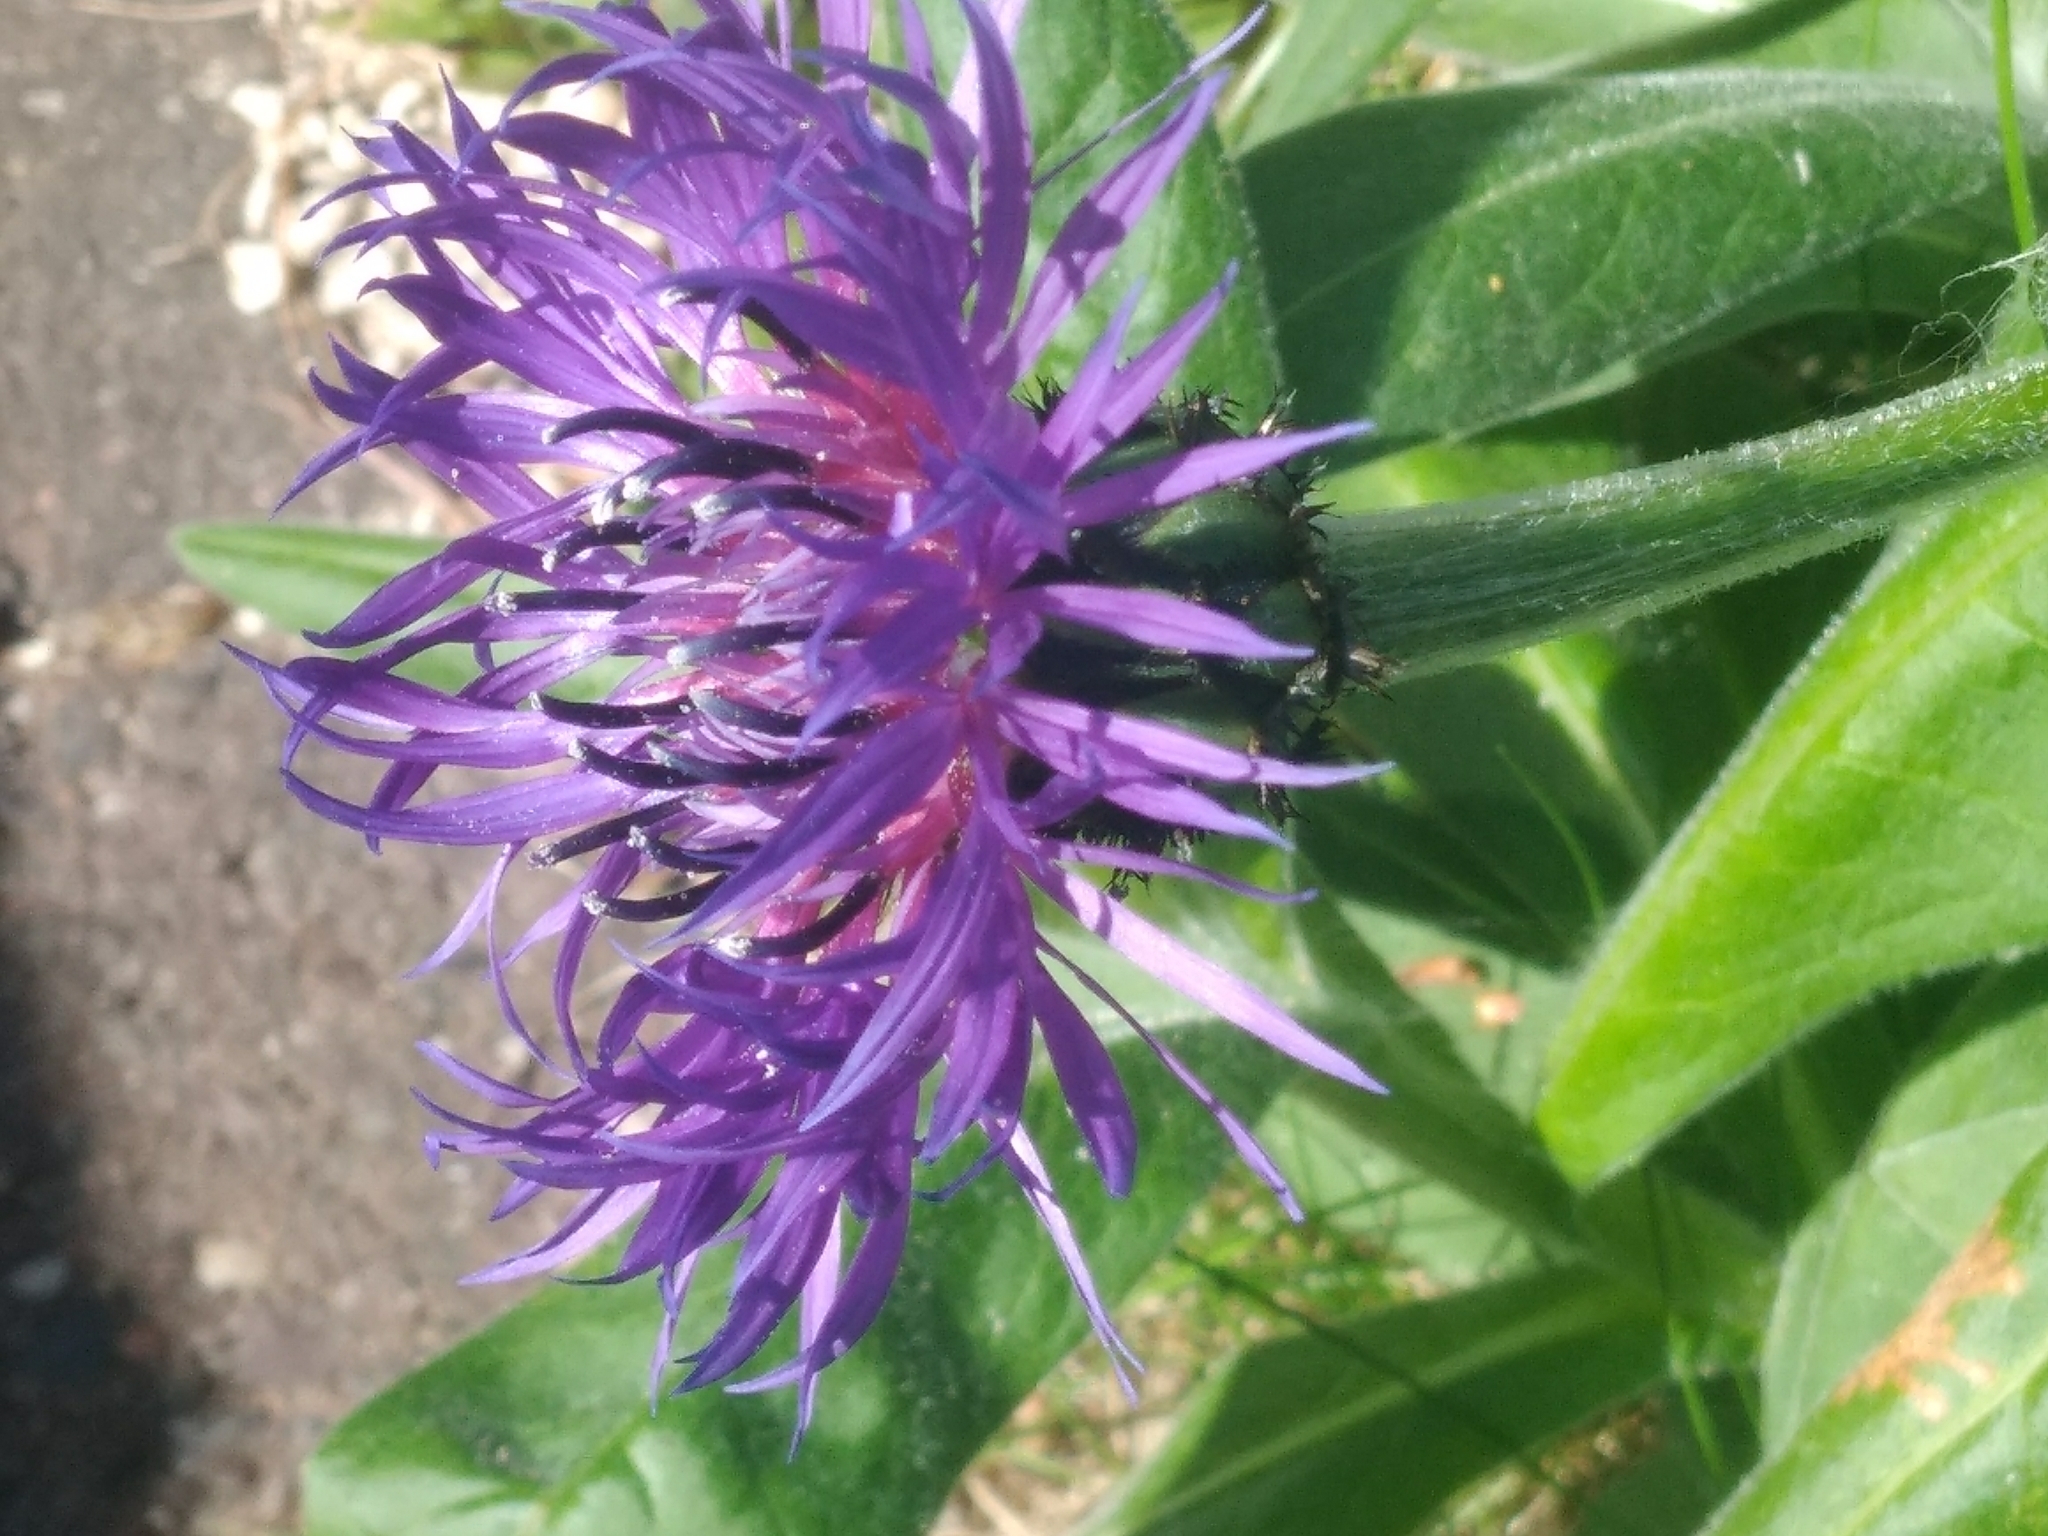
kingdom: Plantae
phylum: Tracheophyta
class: Magnoliopsida
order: Asterales
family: Asteraceae
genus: Centaurea
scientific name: Centaurea montana
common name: Perennial cornflower
